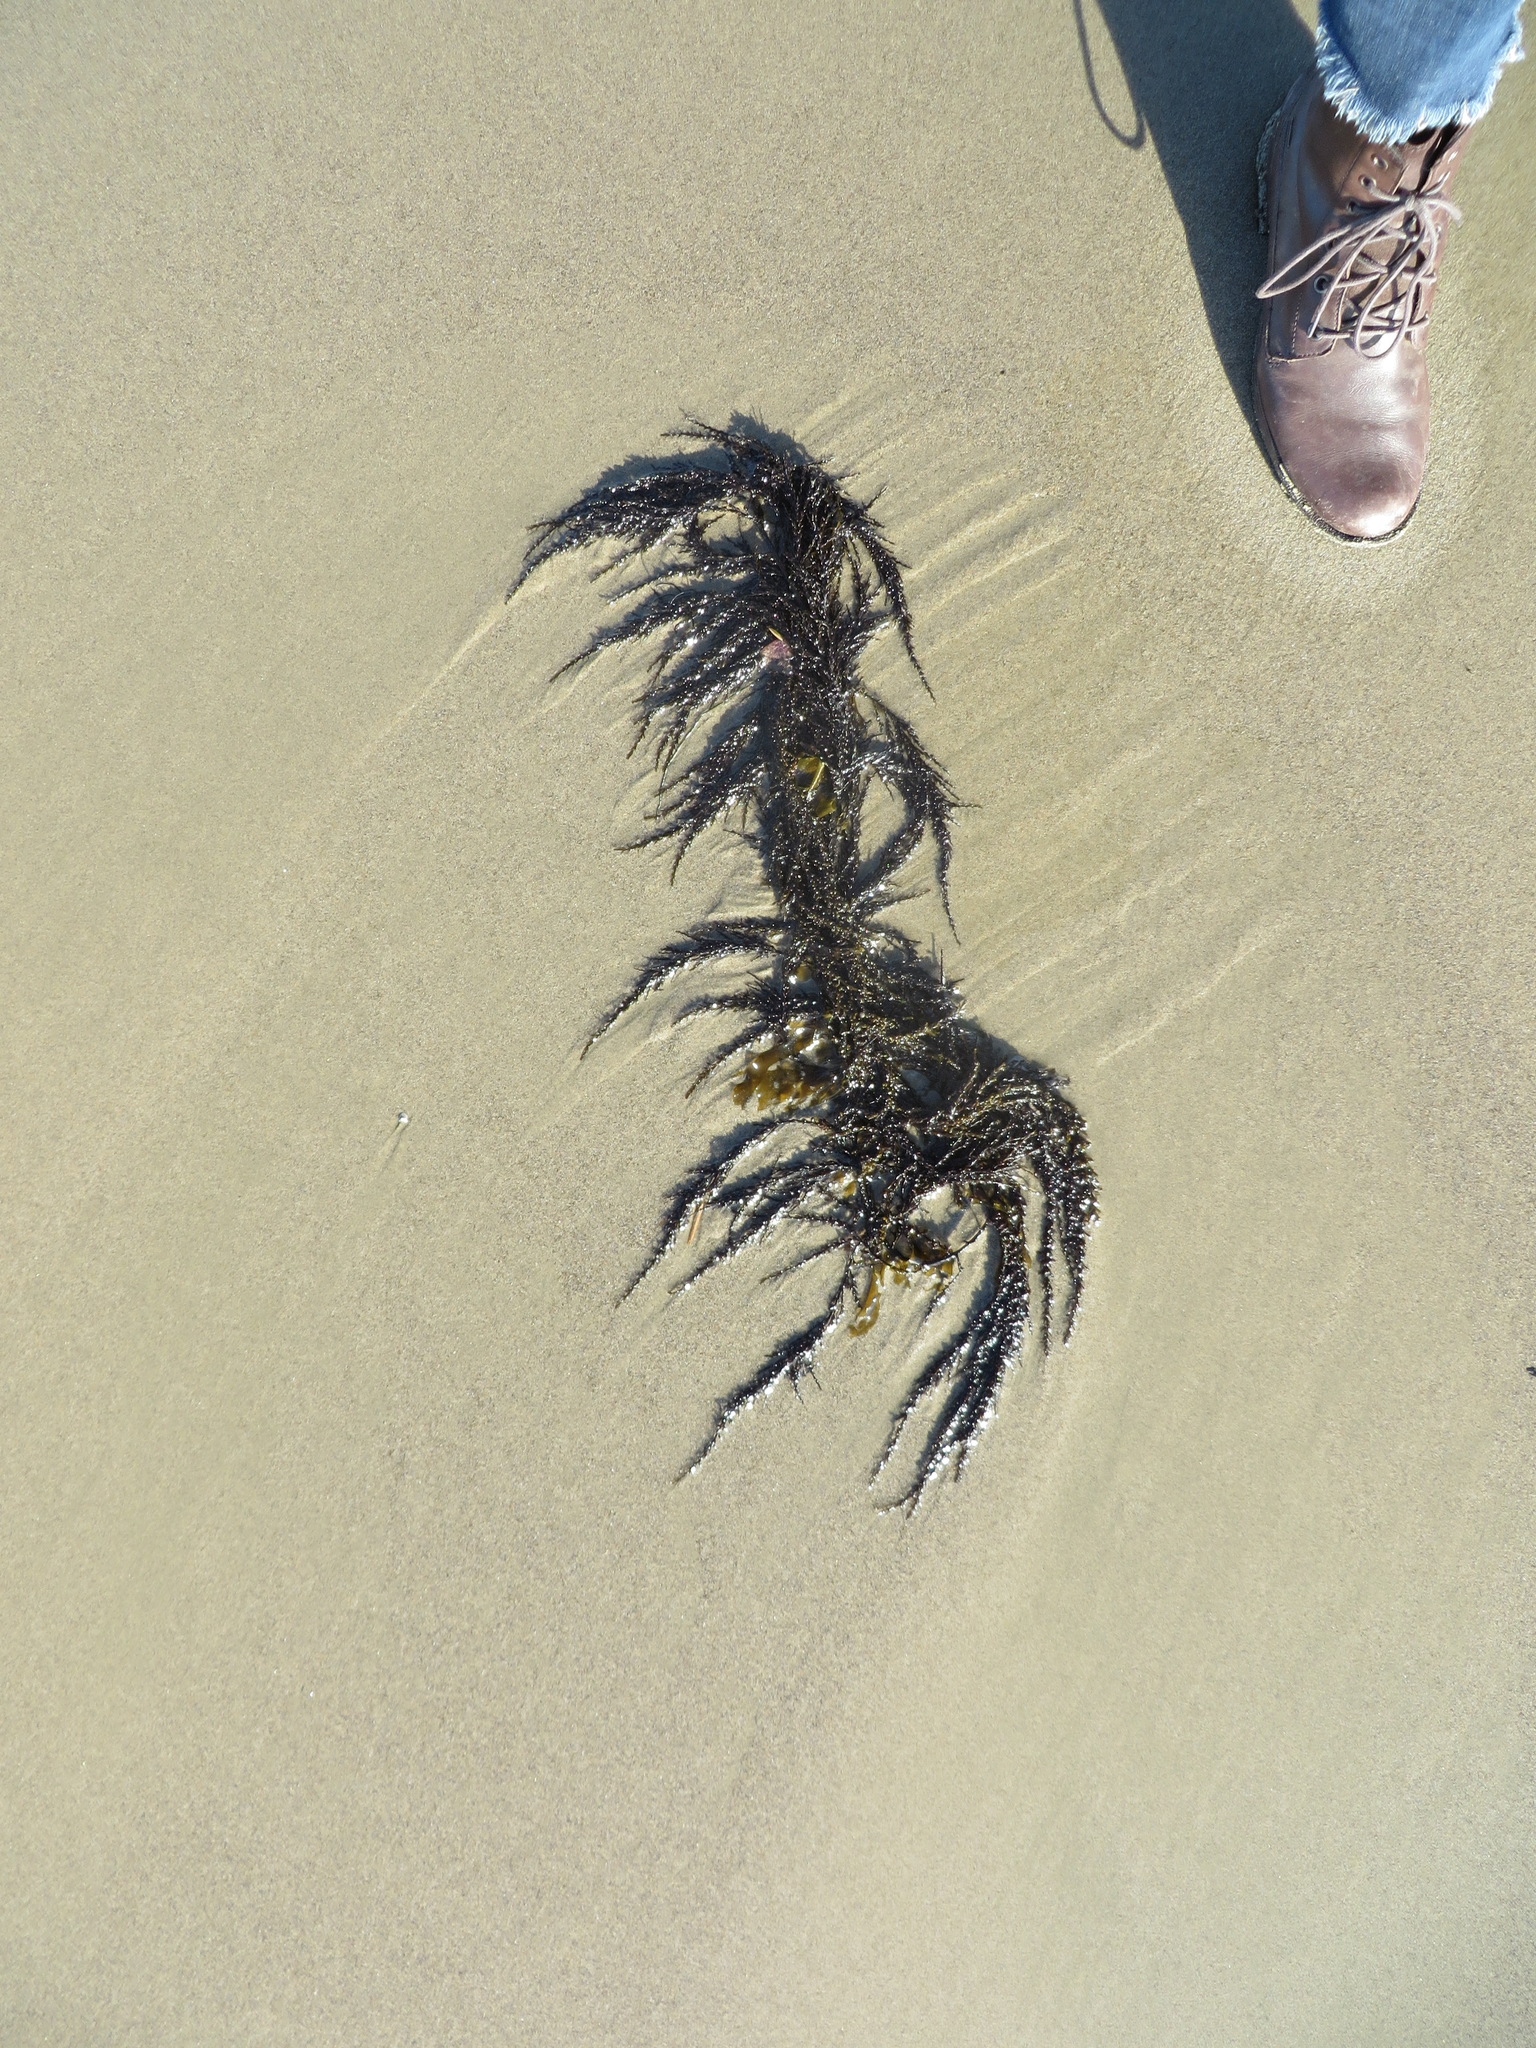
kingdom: Chromista
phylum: Ochrophyta
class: Phaeophyceae
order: Fucales
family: Sargassaceae
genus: Sargassum
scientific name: Sargassum muticum
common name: Japweed
